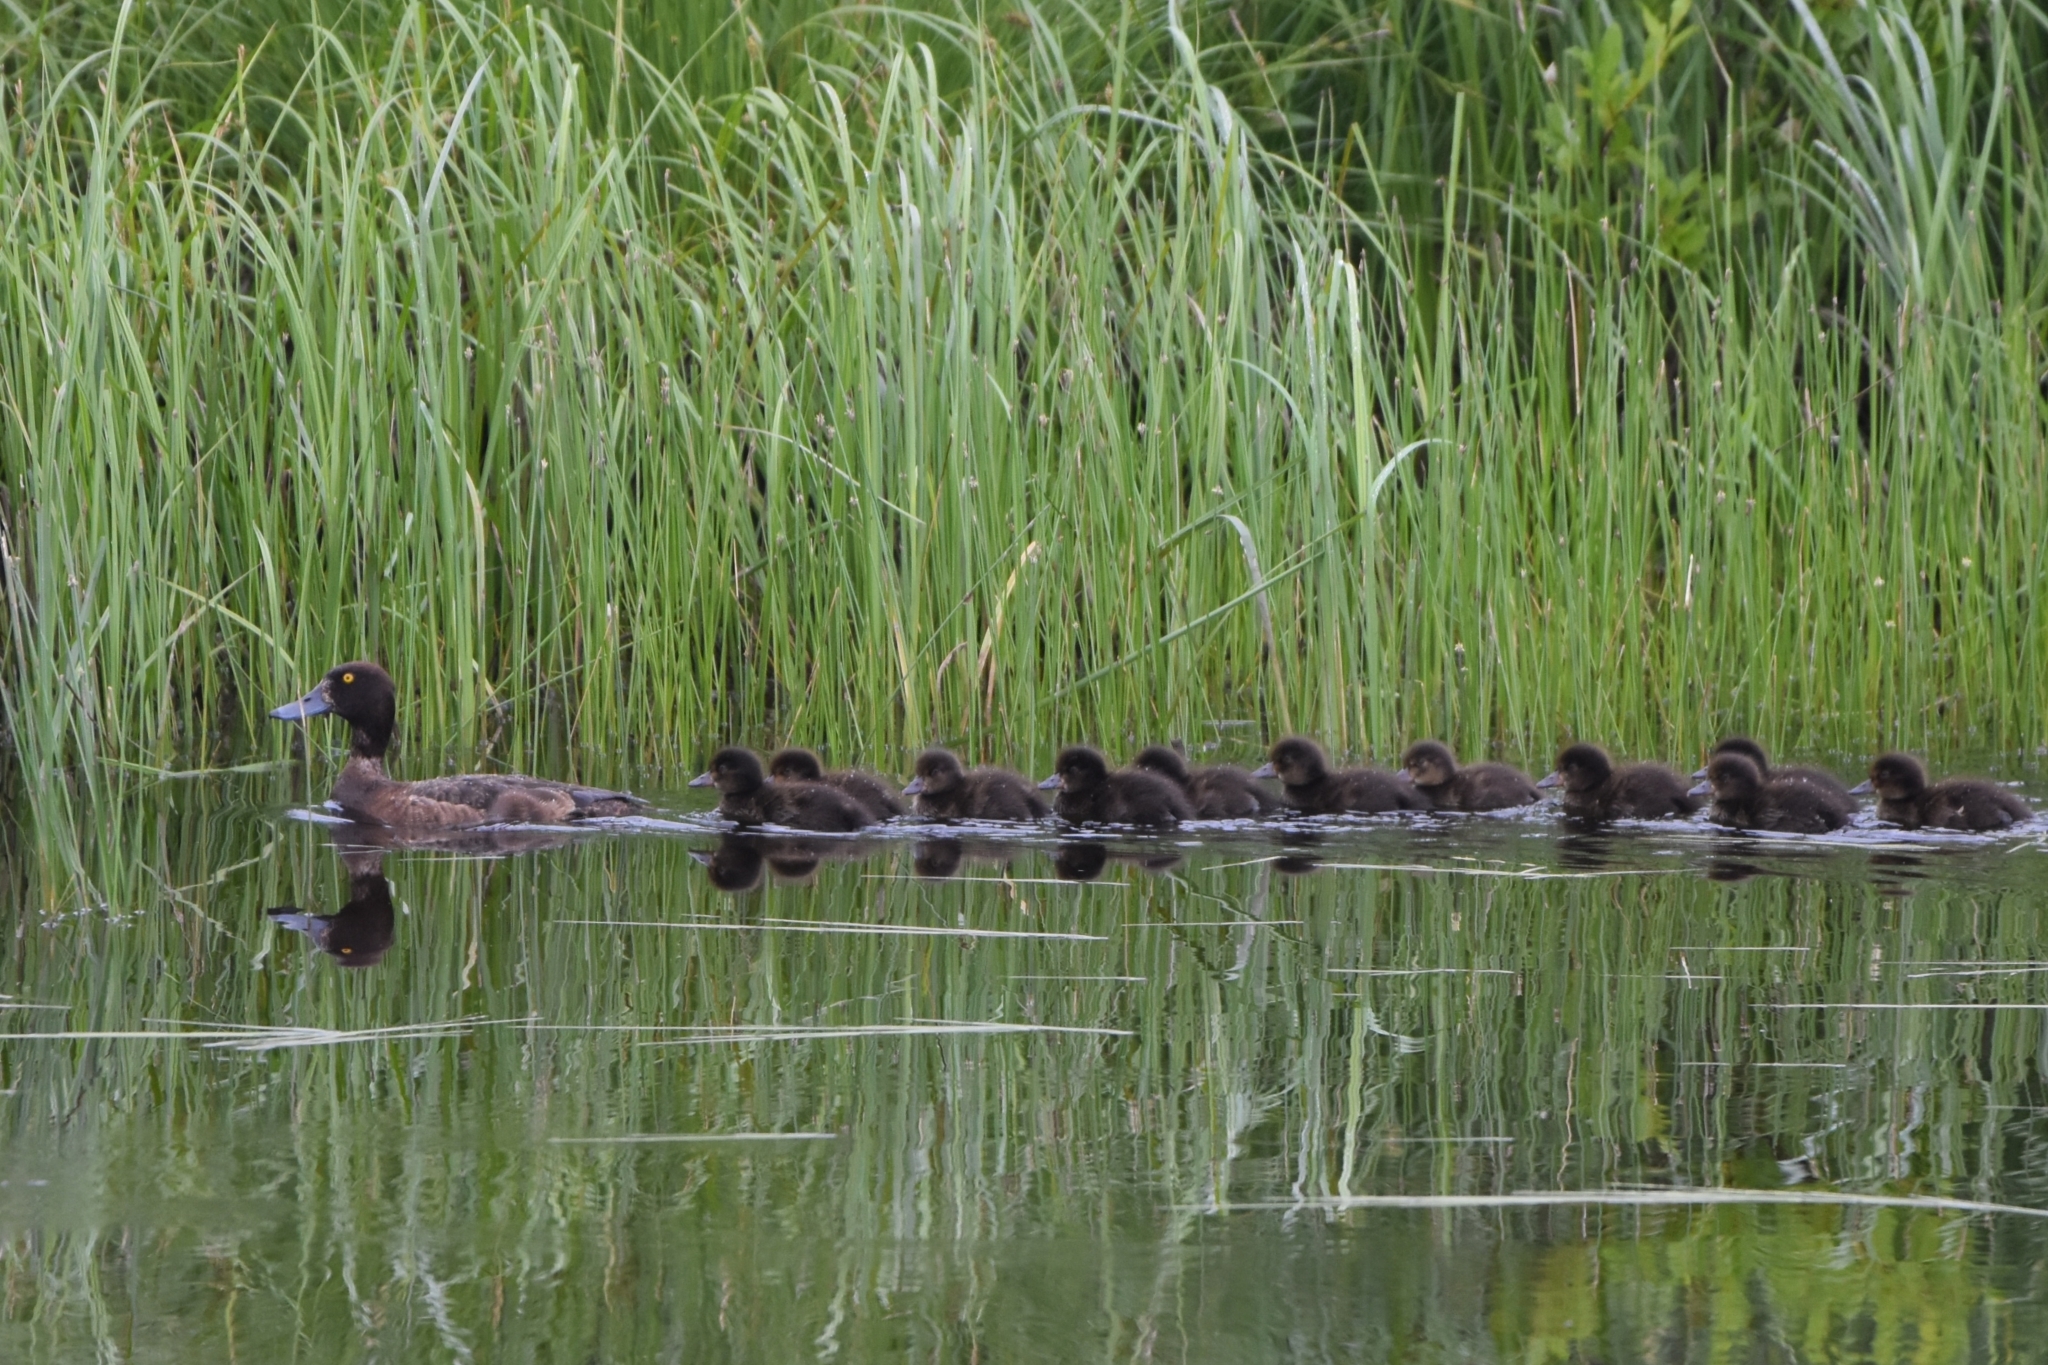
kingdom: Animalia
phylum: Chordata
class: Aves
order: Anseriformes
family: Anatidae
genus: Aythya
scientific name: Aythya fuligula
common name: Tufted duck
